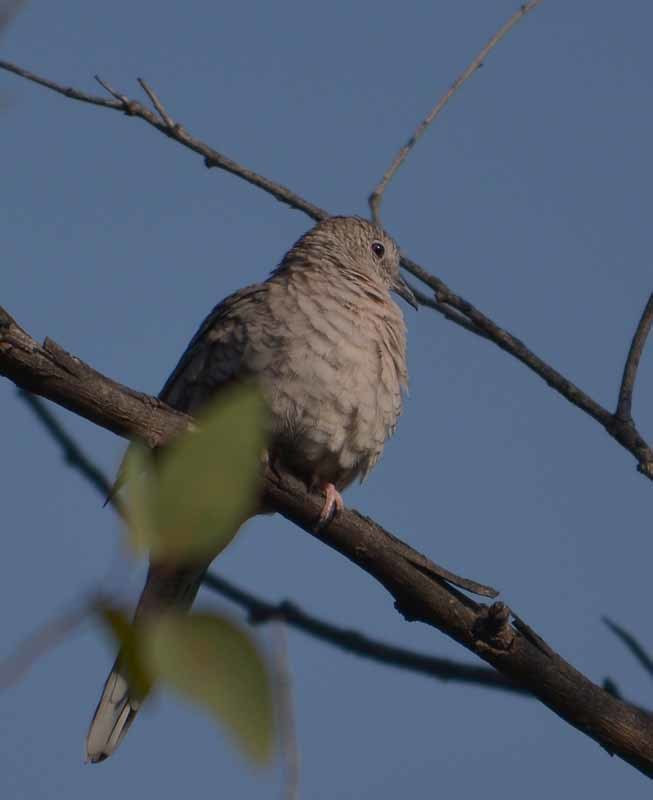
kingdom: Animalia
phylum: Chordata
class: Aves
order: Columbiformes
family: Columbidae
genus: Columbina
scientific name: Columbina inca
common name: Inca dove
